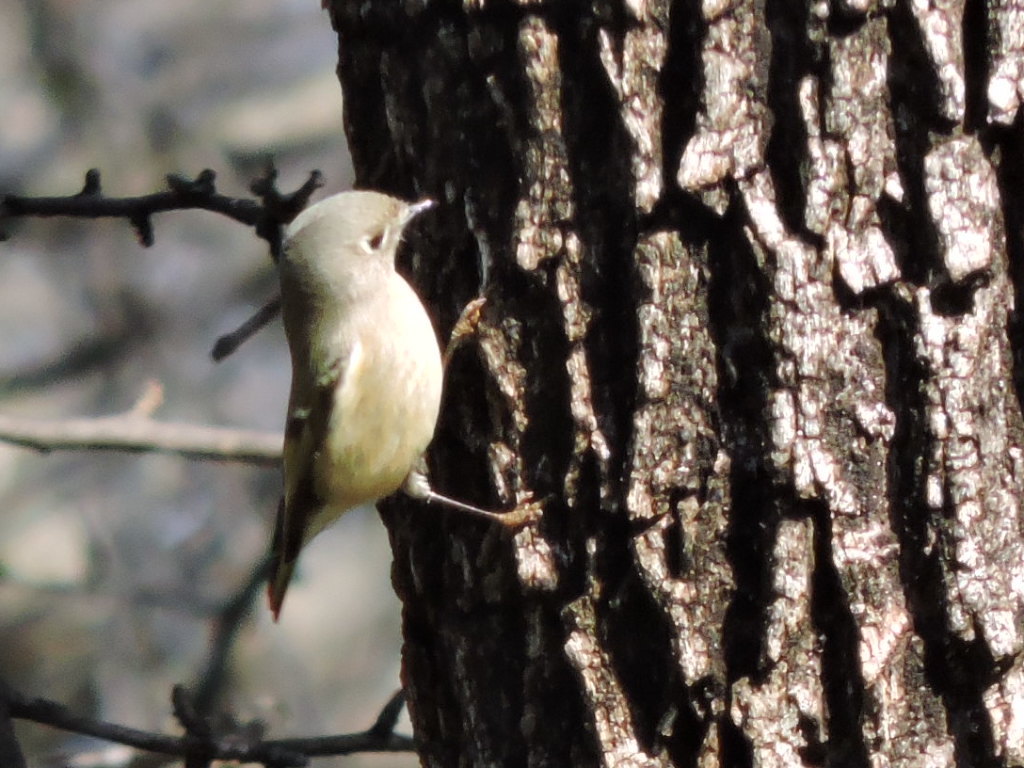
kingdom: Animalia
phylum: Chordata
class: Aves
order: Passeriformes
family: Regulidae
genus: Regulus
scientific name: Regulus calendula
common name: Ruby-crowned kinglet
